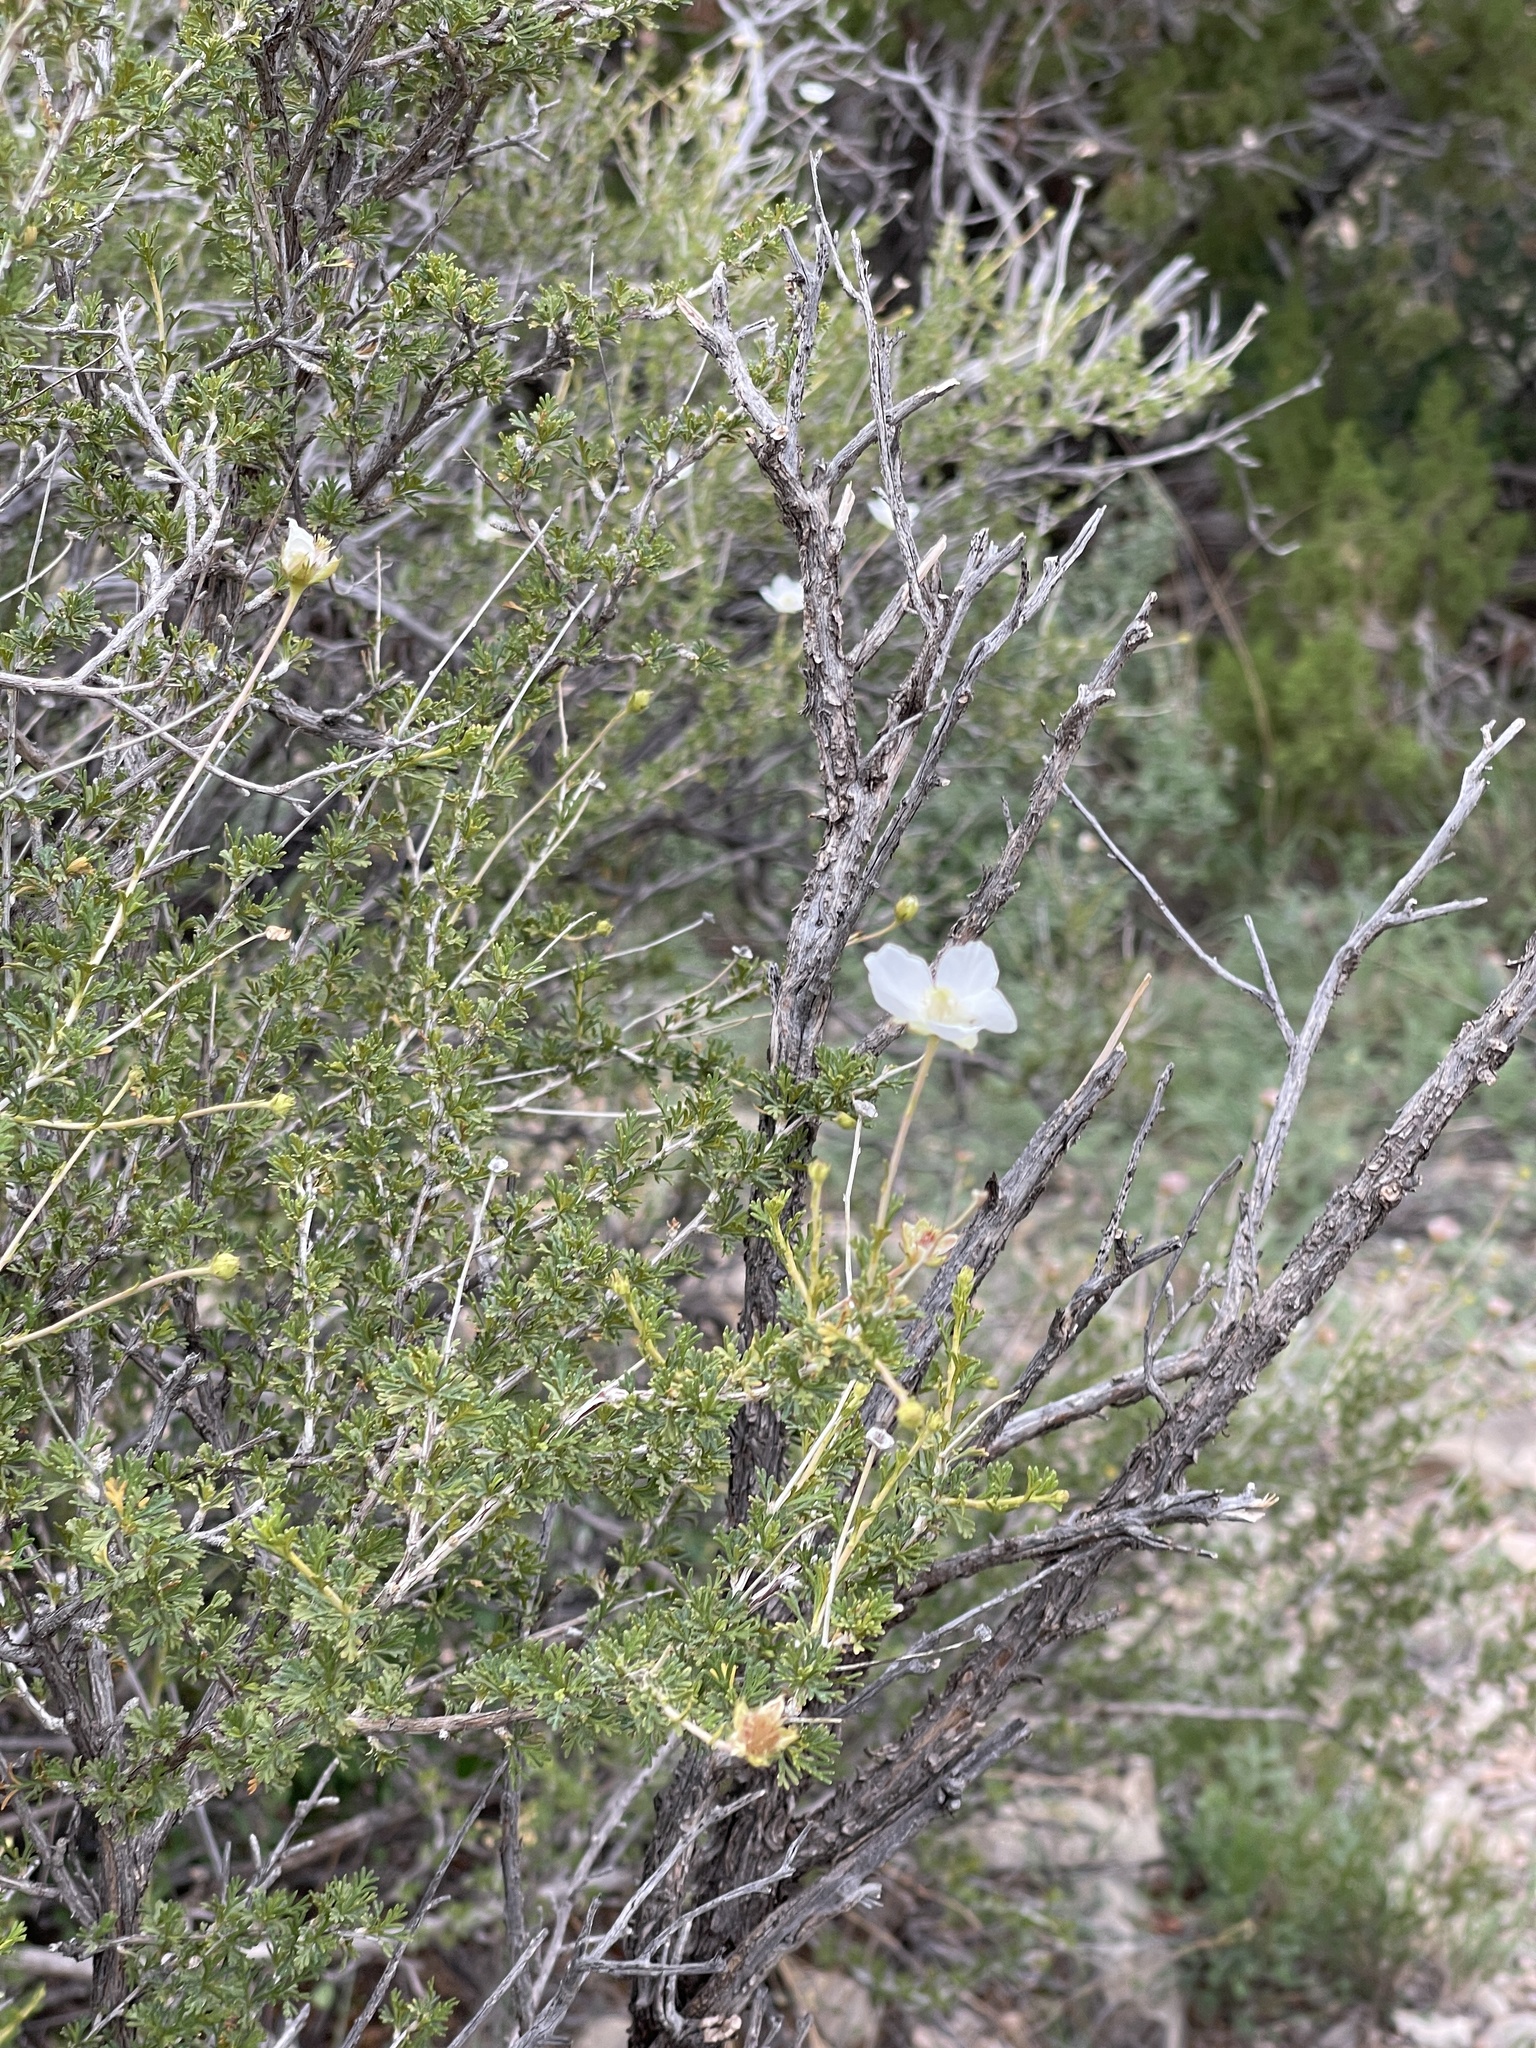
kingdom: Plantae
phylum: Tracheophyta
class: Magnoliopsida
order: Rosales
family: Rosaceae
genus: Fallugia
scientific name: Fallugia paradoxa
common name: Apache-plume
